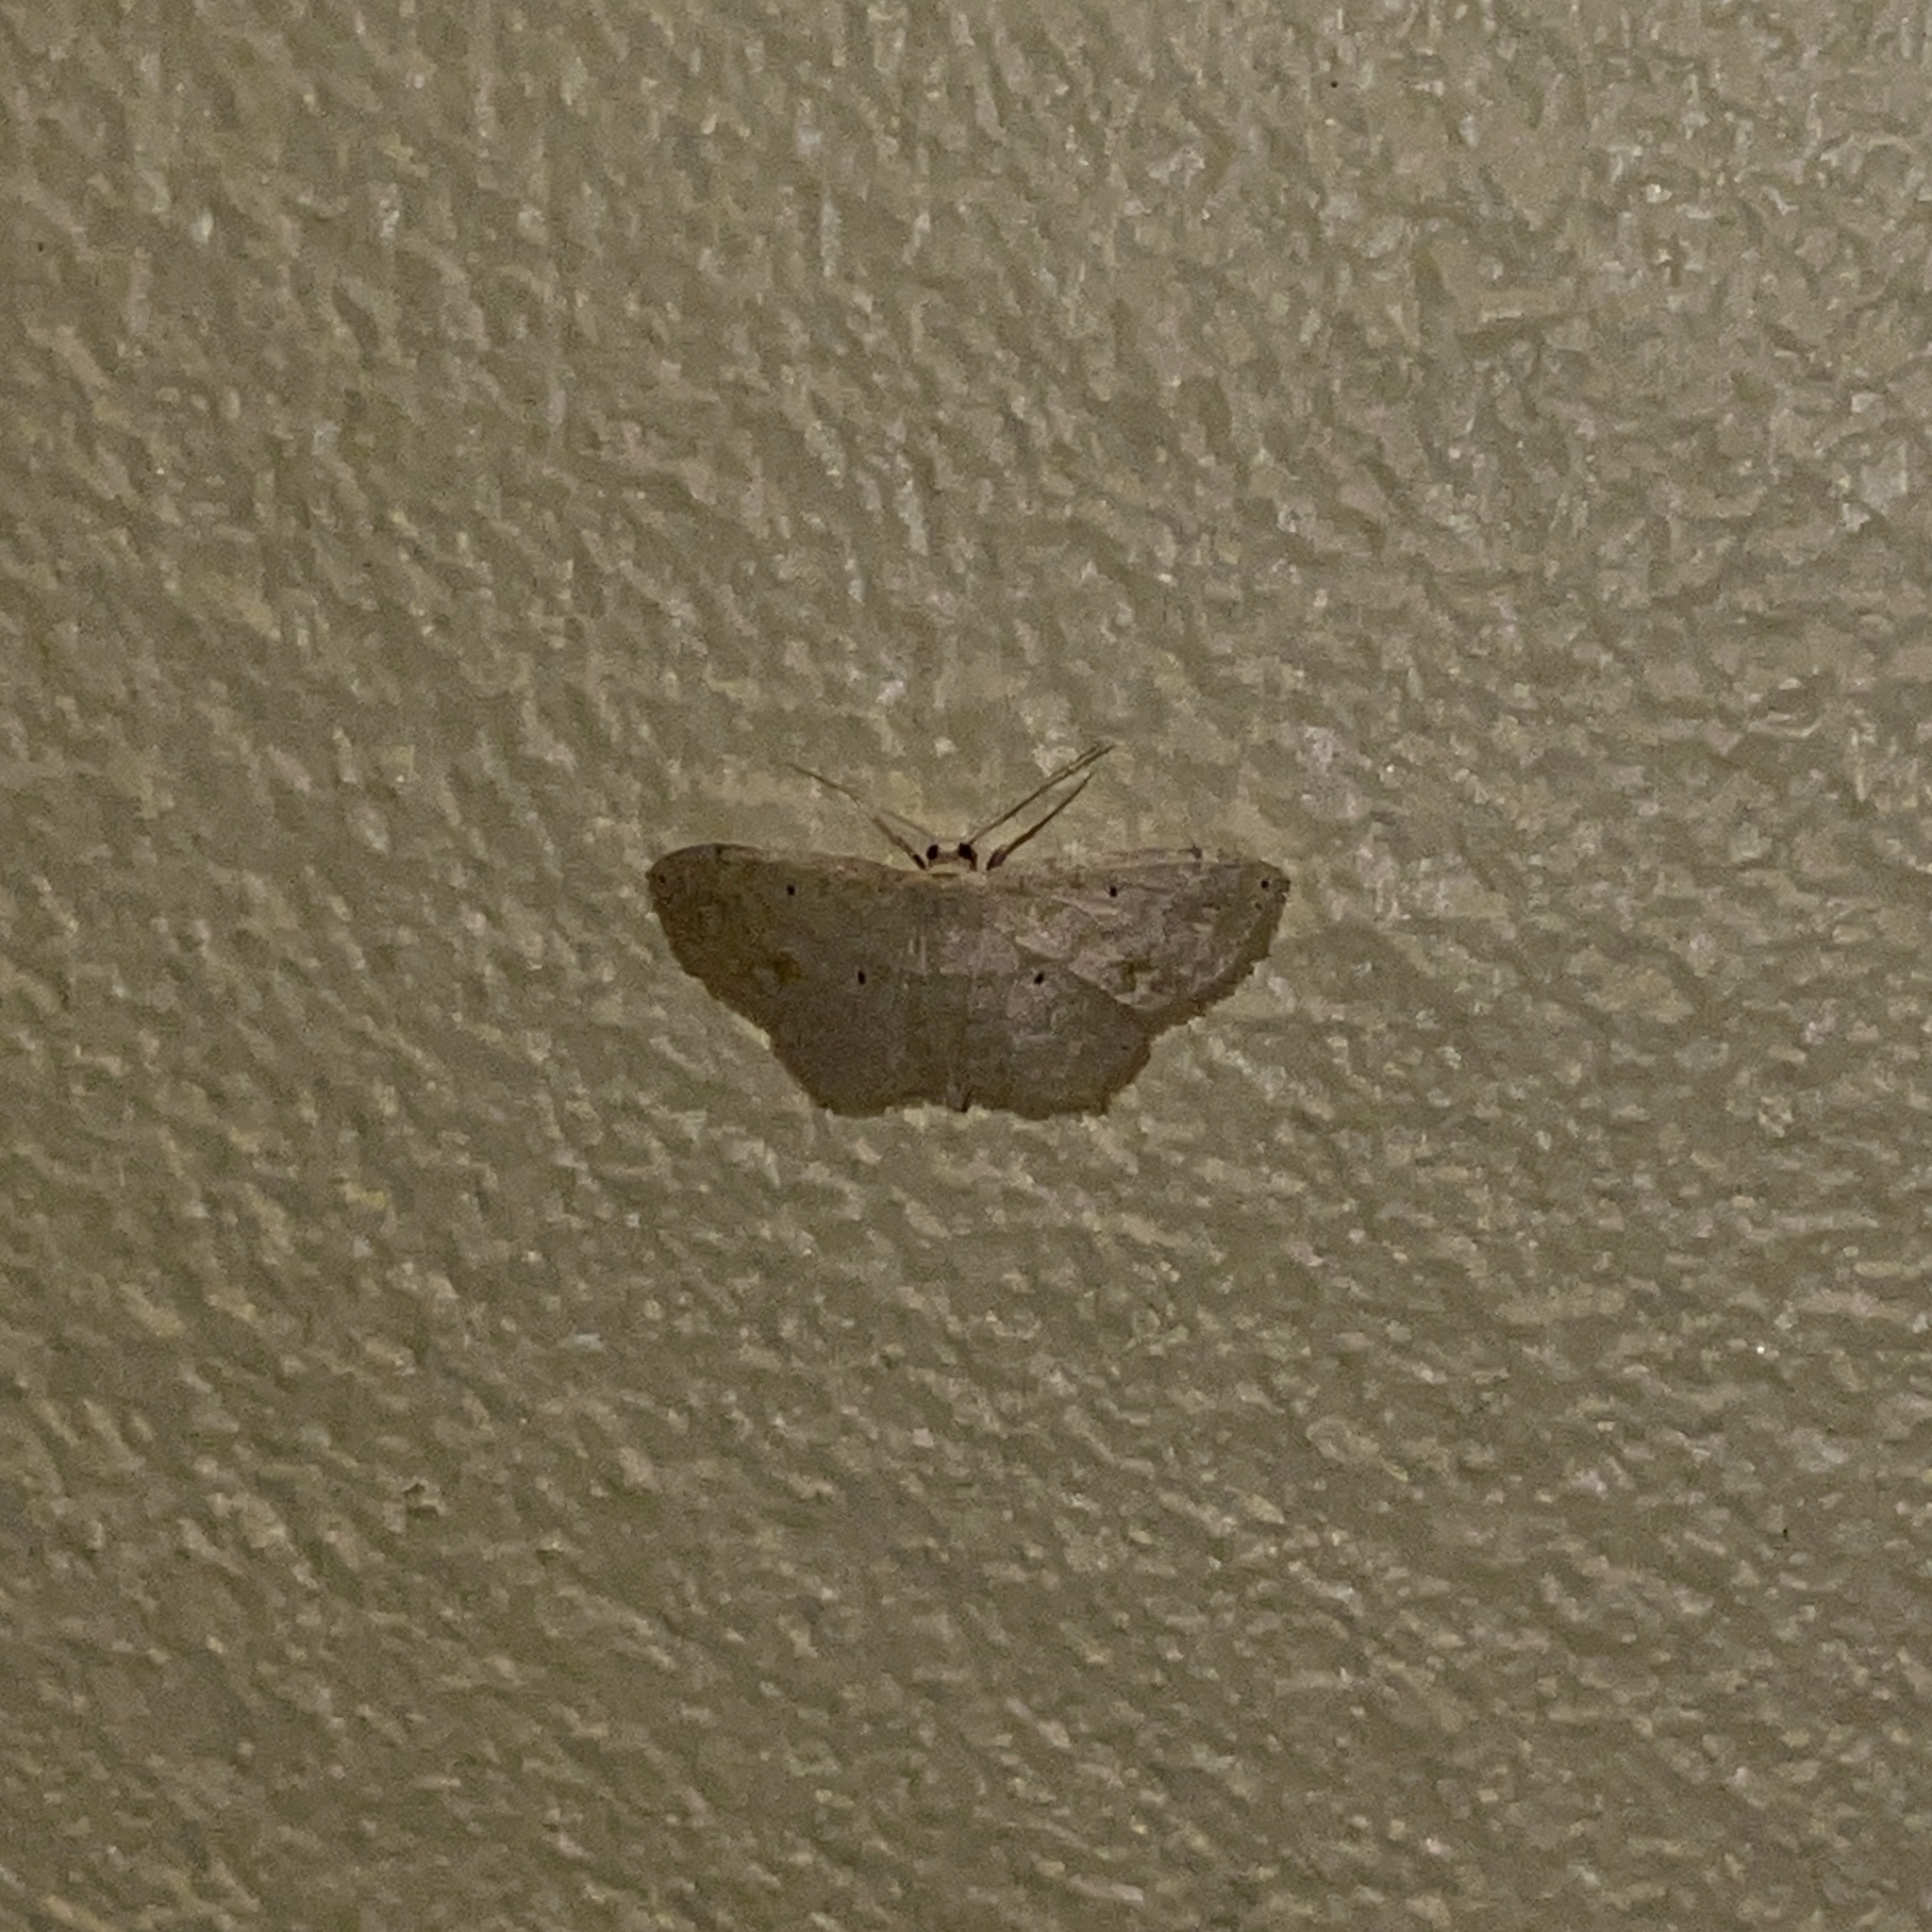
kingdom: Animalia
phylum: Arthropoda
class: Insecta
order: Lepidoptera
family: Geometridae
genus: Scopula
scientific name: Scopula apparitaria
